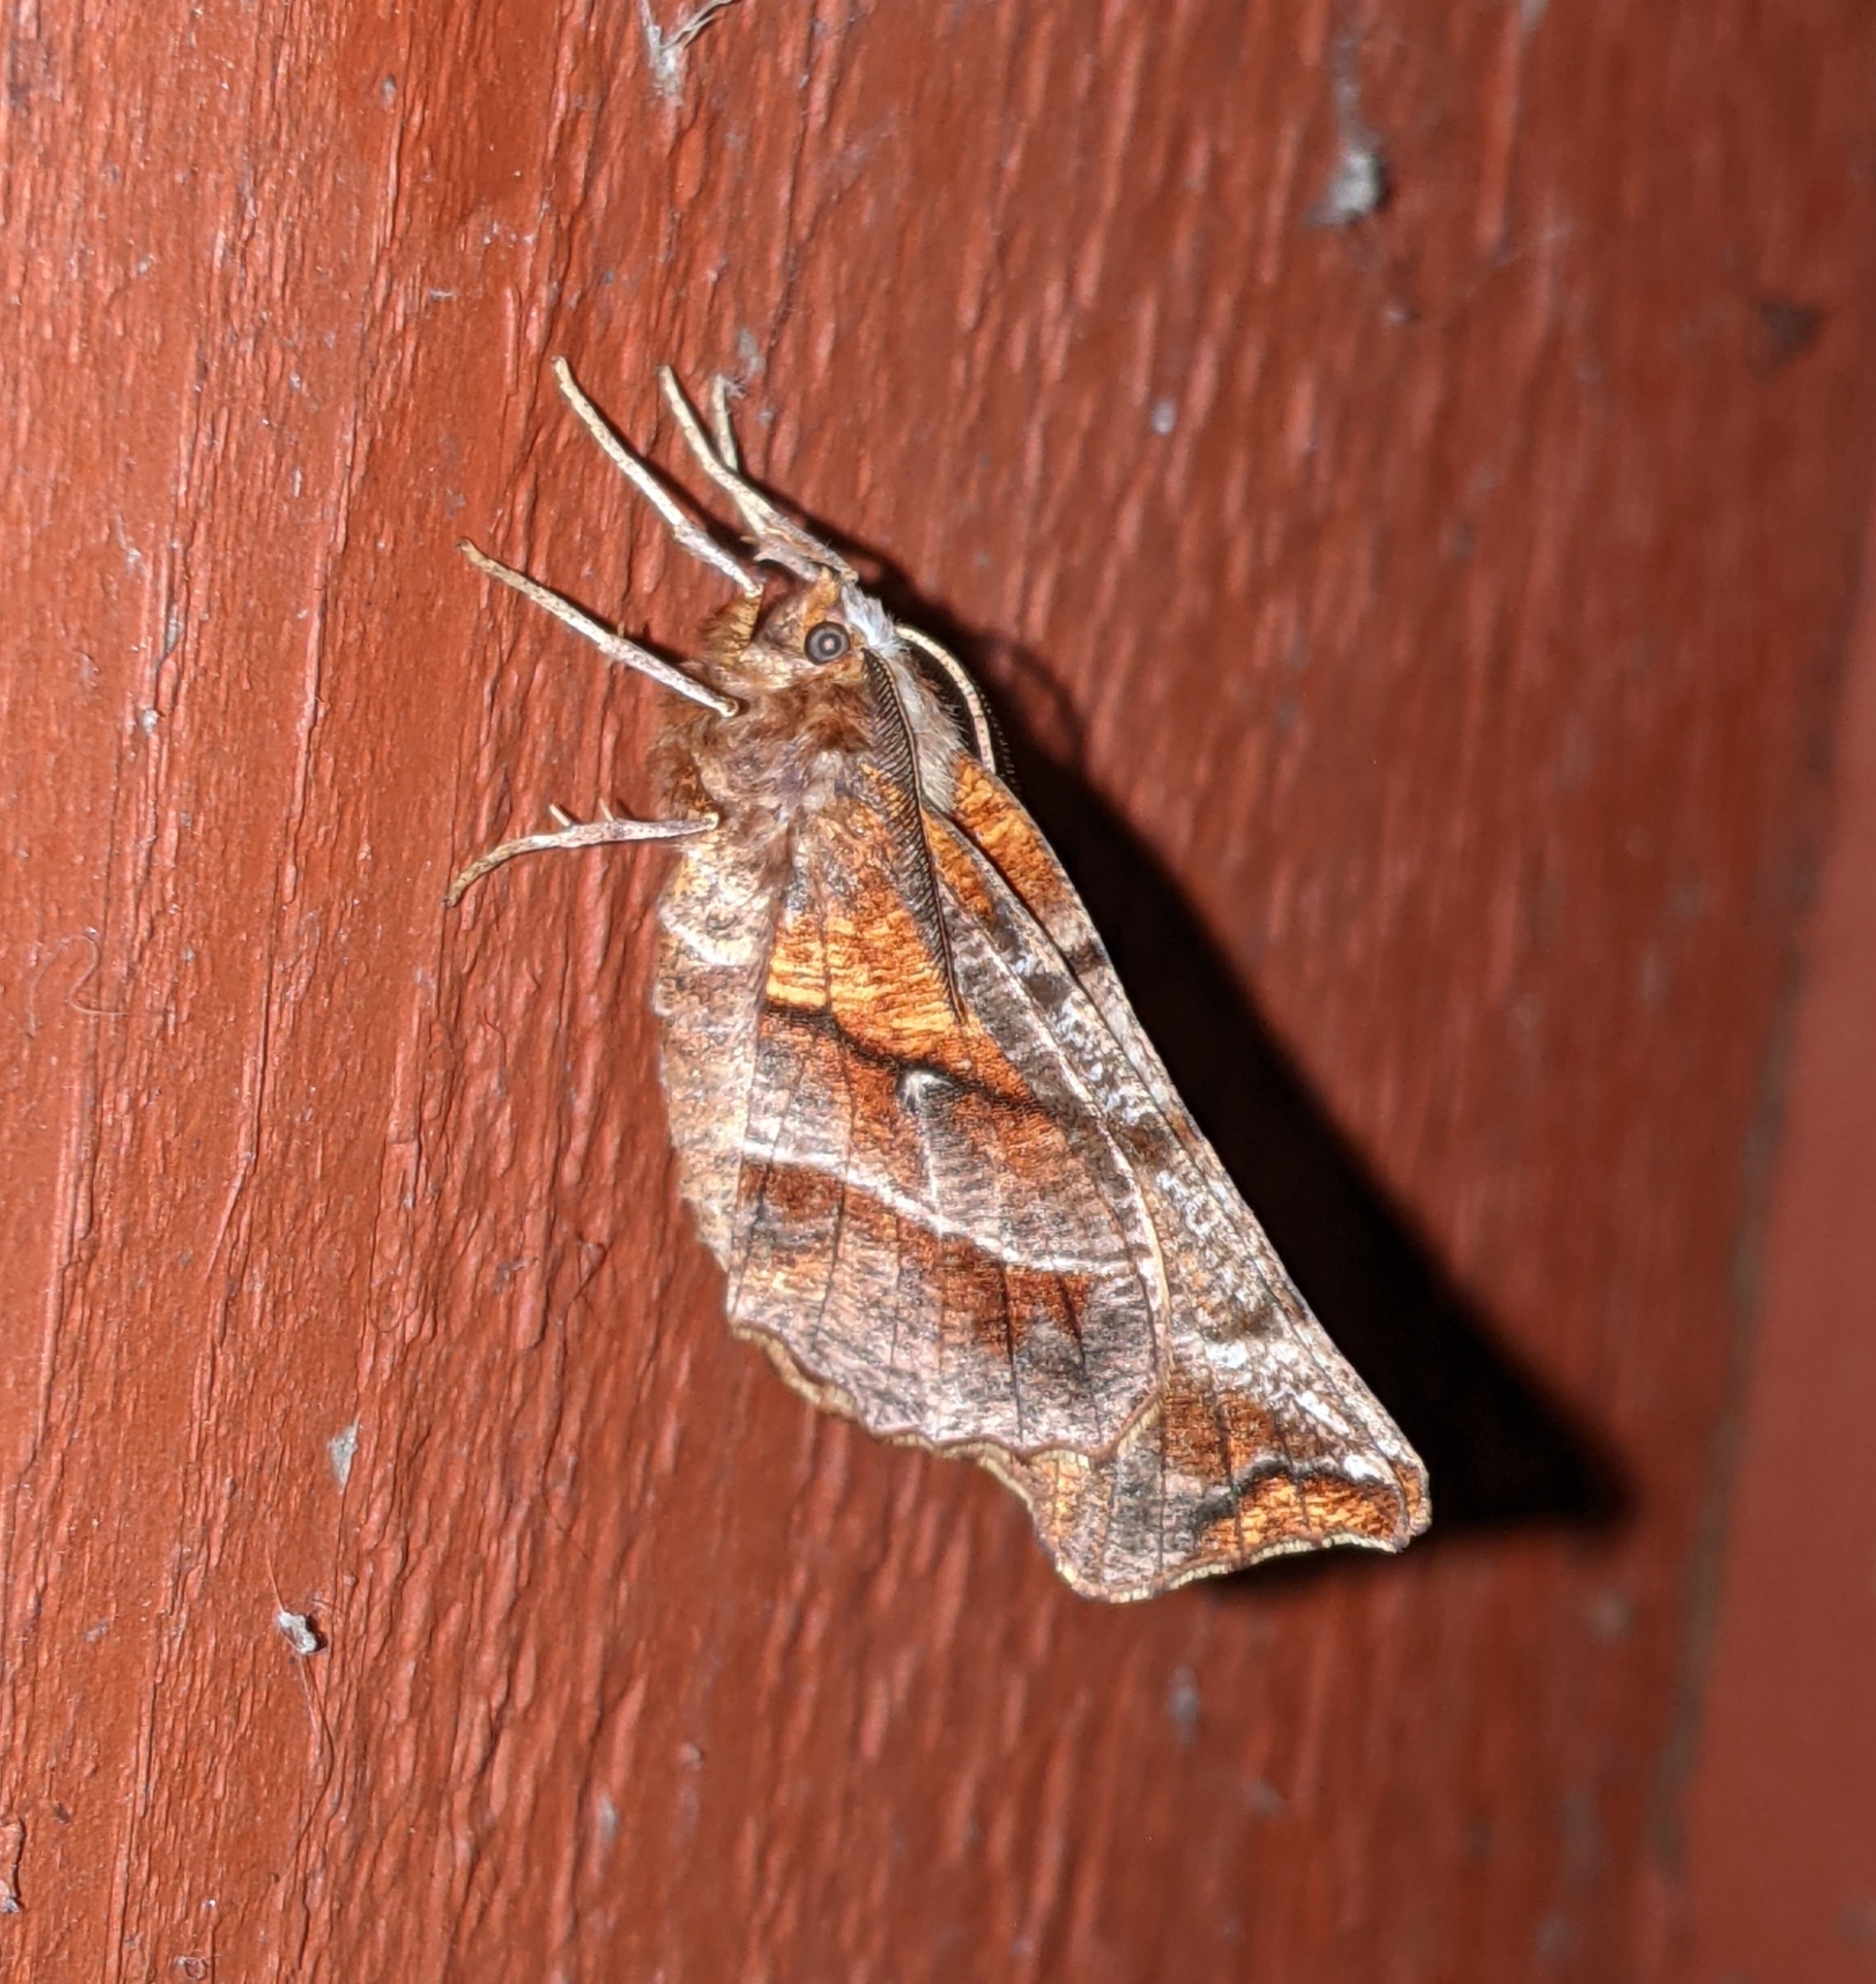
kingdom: Animalia
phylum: Arthropoda
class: Insecta
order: Lepidoptera
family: Geometridae
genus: Selenia
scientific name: Selenia alciphearia
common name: Brown-tipped thorn
